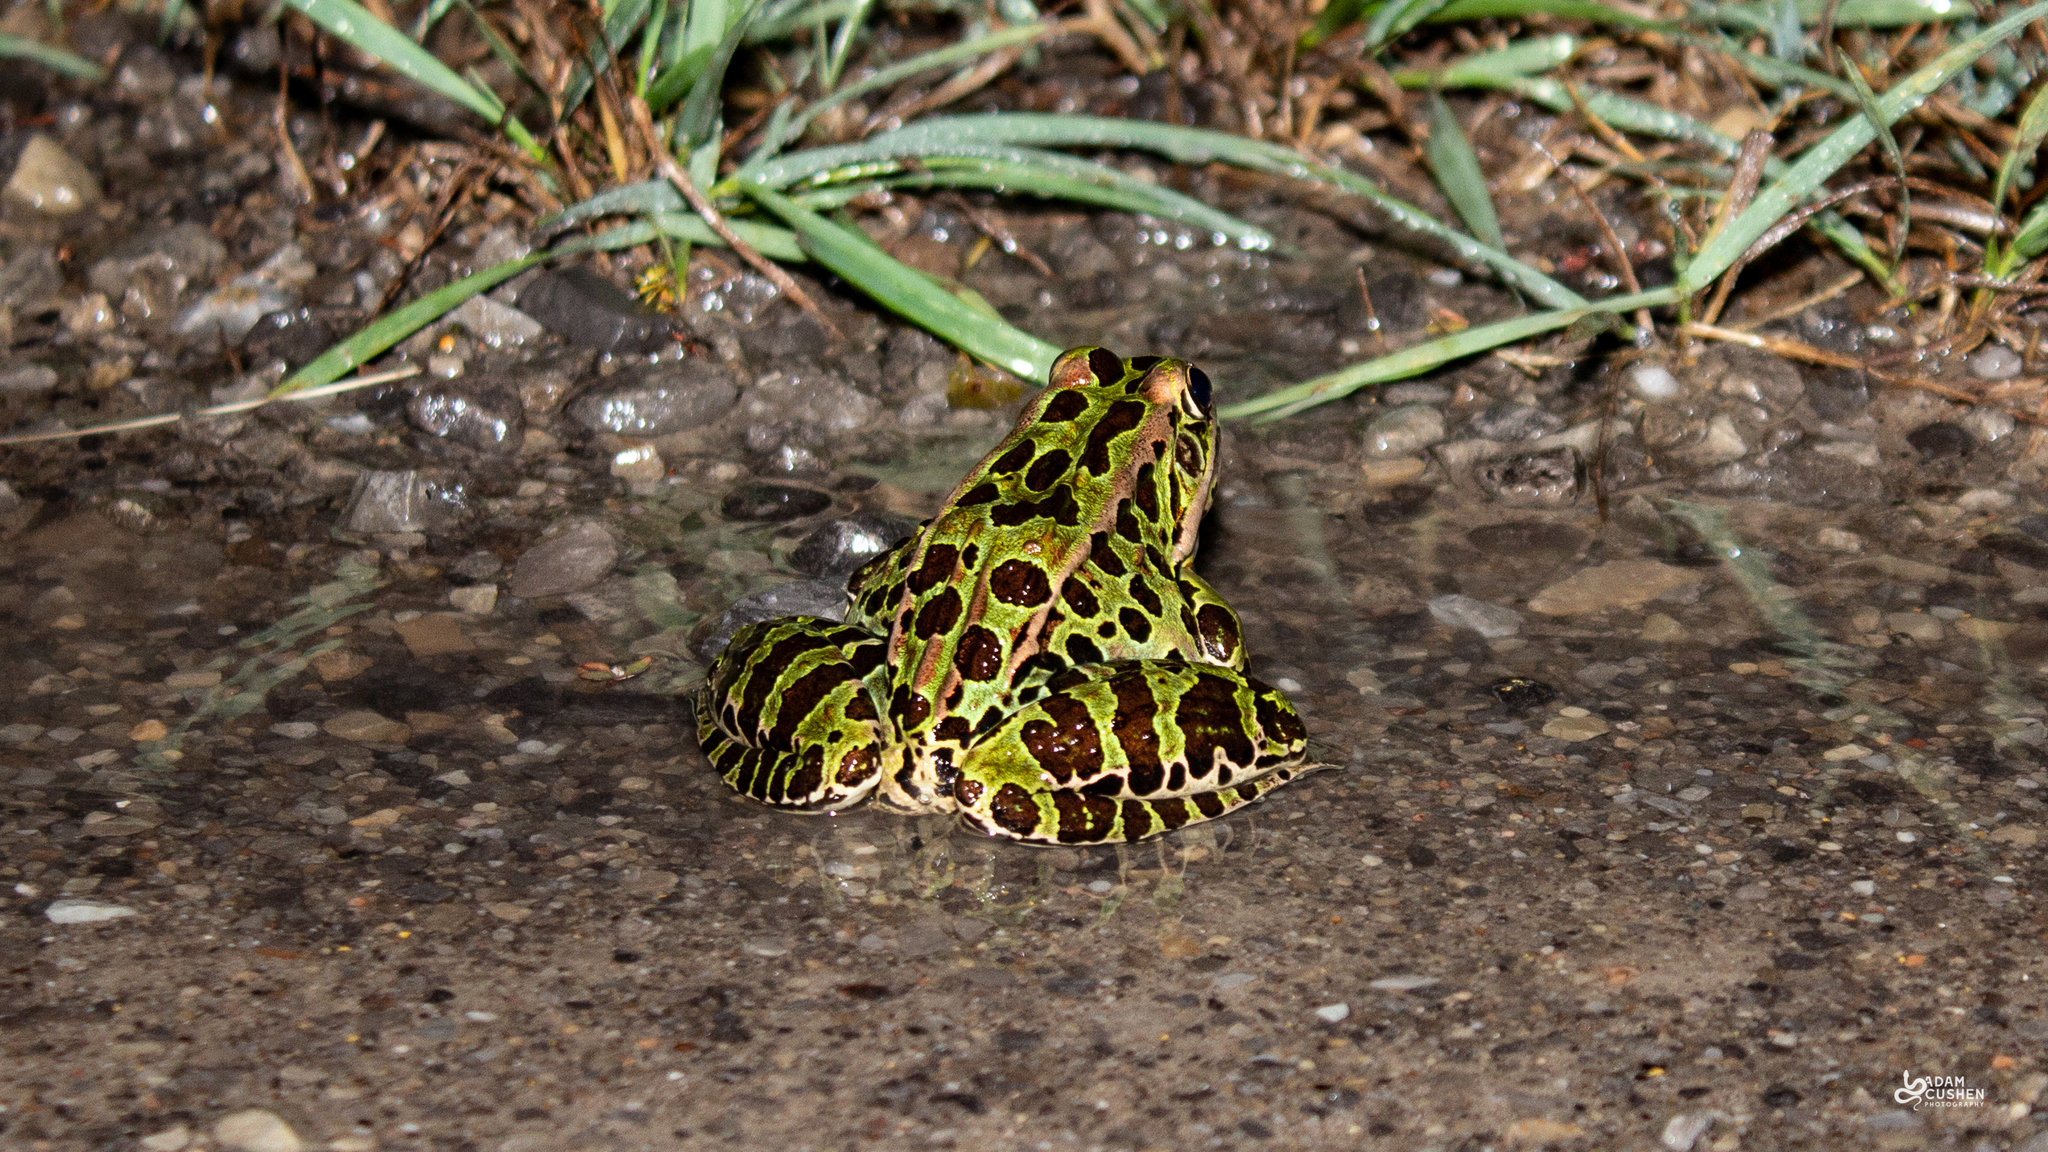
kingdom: Animalia
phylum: Chordata
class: Amphibia
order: Anura
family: Ranidae
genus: Lithobates
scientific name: Lithobates pipiens
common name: Northern leopard frog
